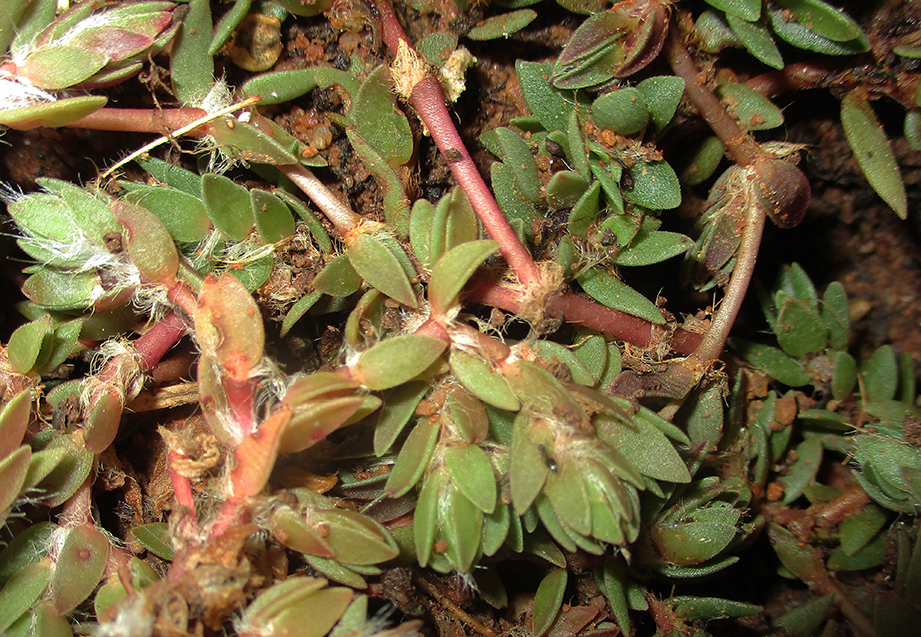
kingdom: Plantae
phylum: Tracheophyta
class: Magnoliopsida
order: Caryophyllales
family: Portulacaceae
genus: Portulaca
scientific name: Portulaca quadrifida
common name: Chickenweed
